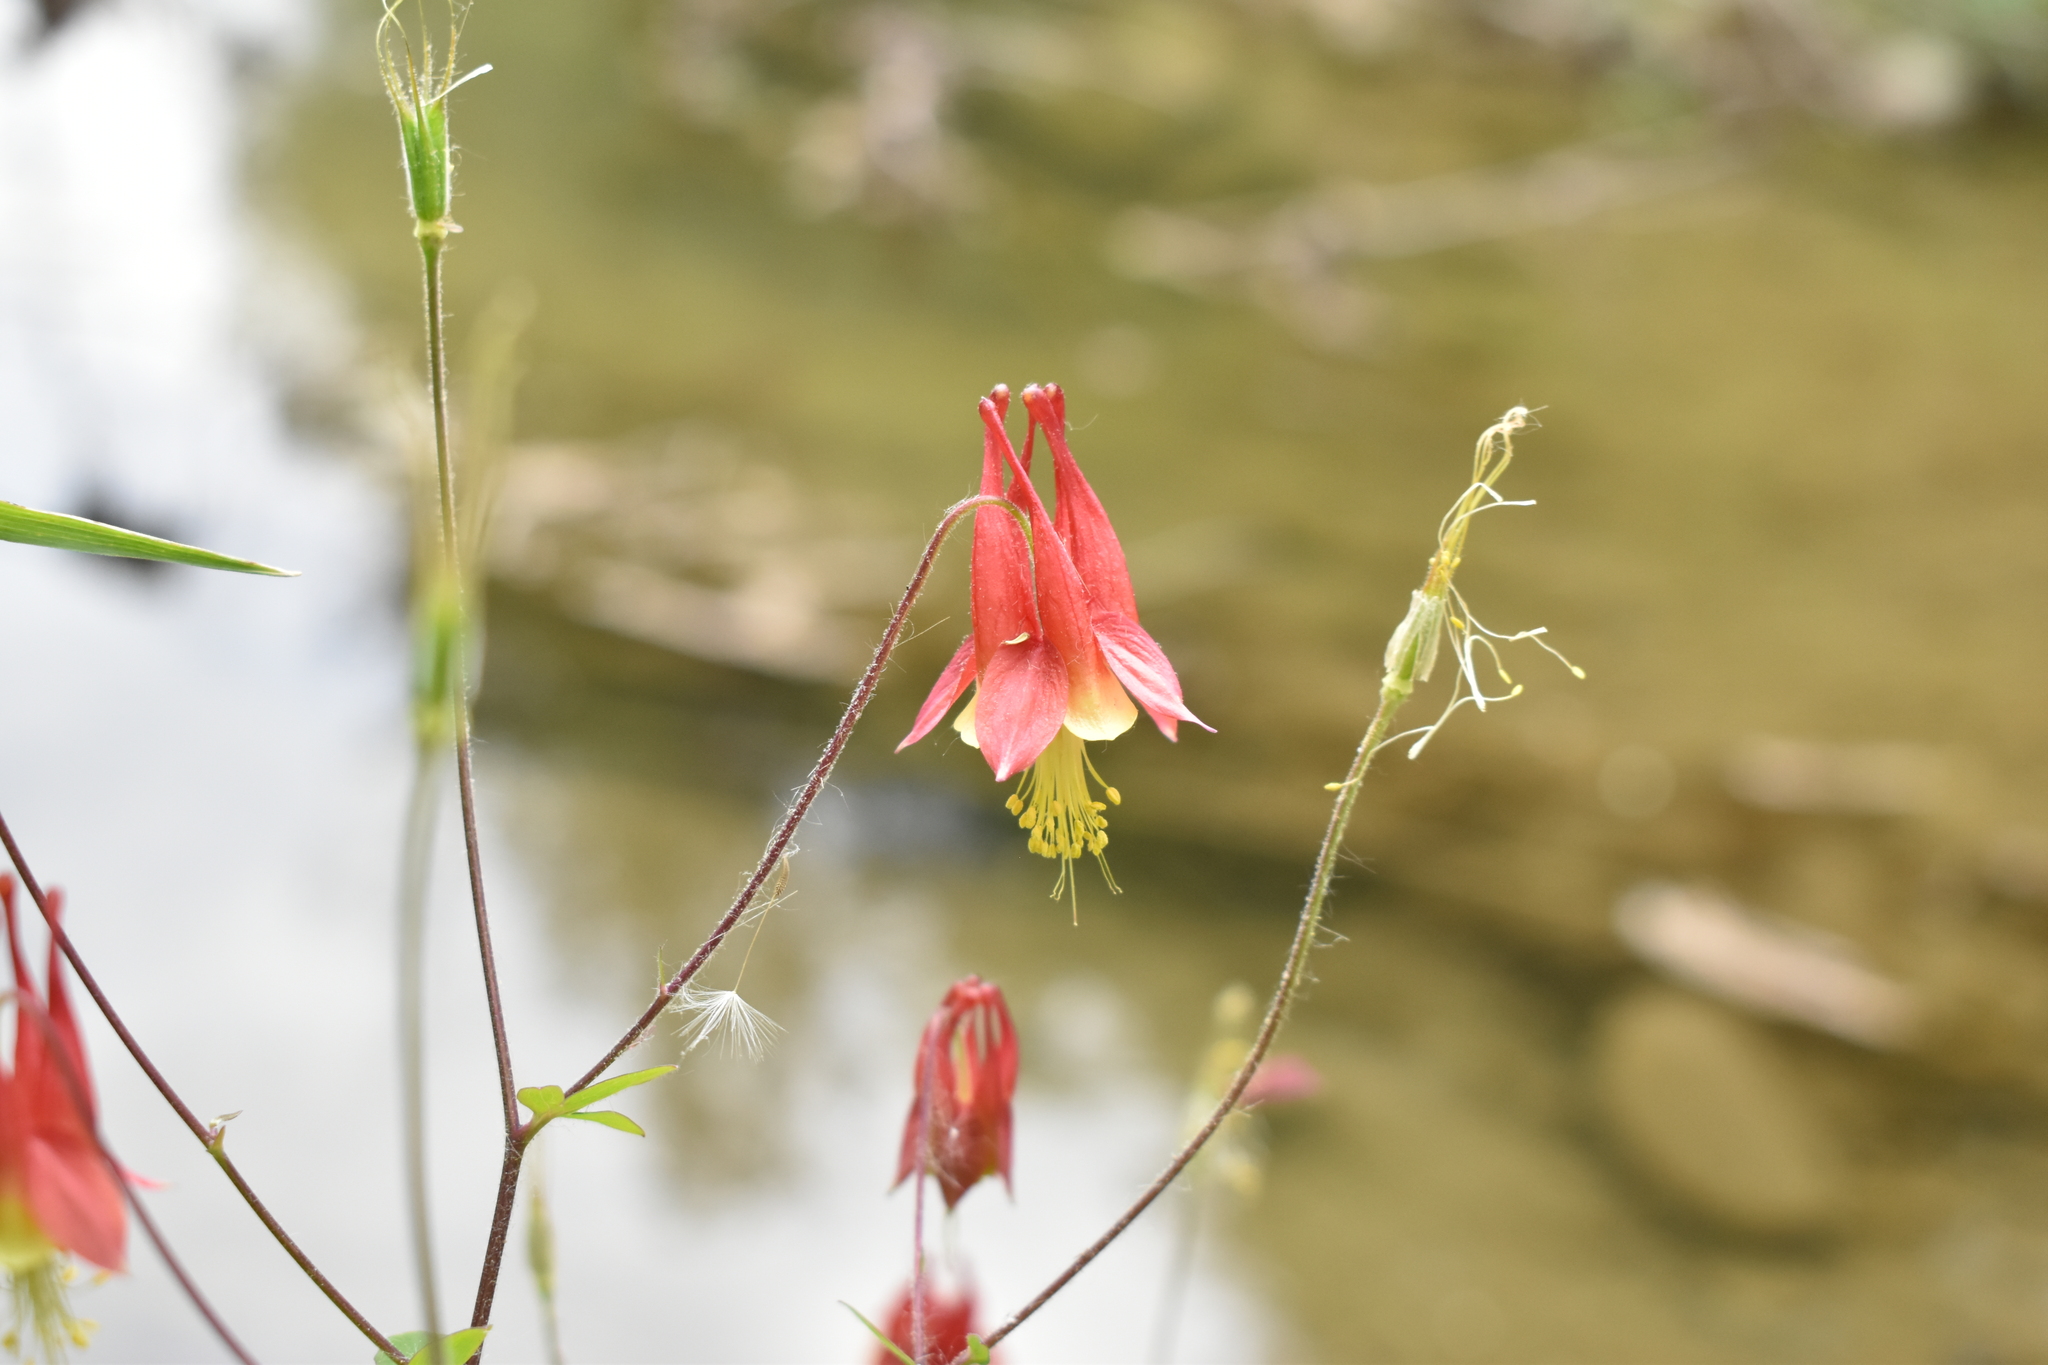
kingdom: Plantae
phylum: Tracheophyta
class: Magnoliopsida
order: Ranunculales
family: Ranunculaceae
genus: Aquilegia
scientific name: Aquilegia canadensis
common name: American columbine
